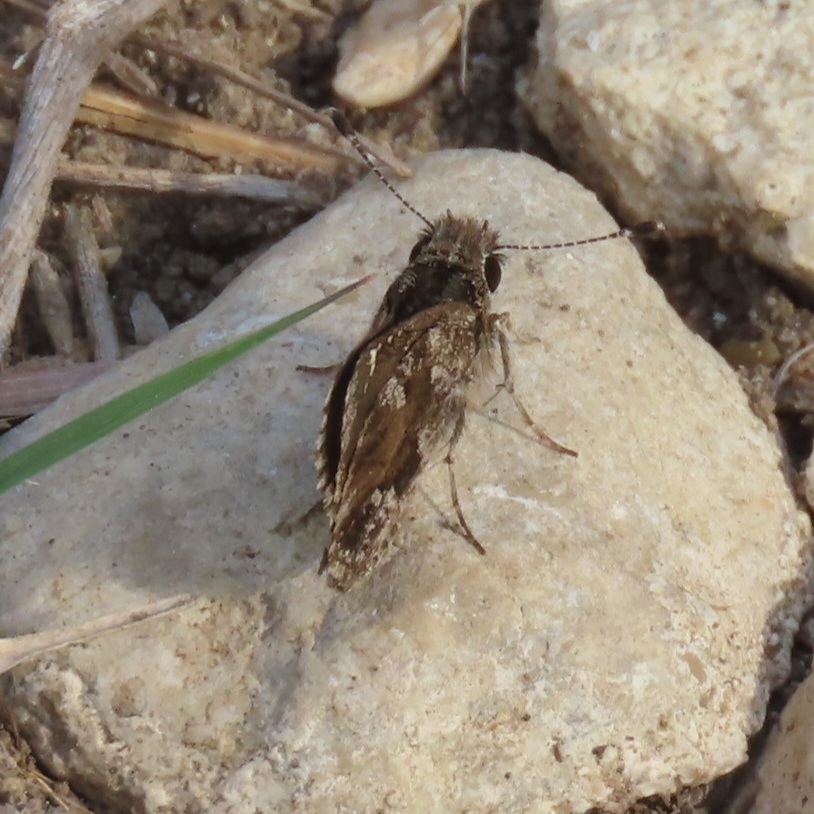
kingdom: Animalia
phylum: Arthropoda
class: Insecta
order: Lepidoptera
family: Hesperiidae
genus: Mastor
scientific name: Mastor nysa
